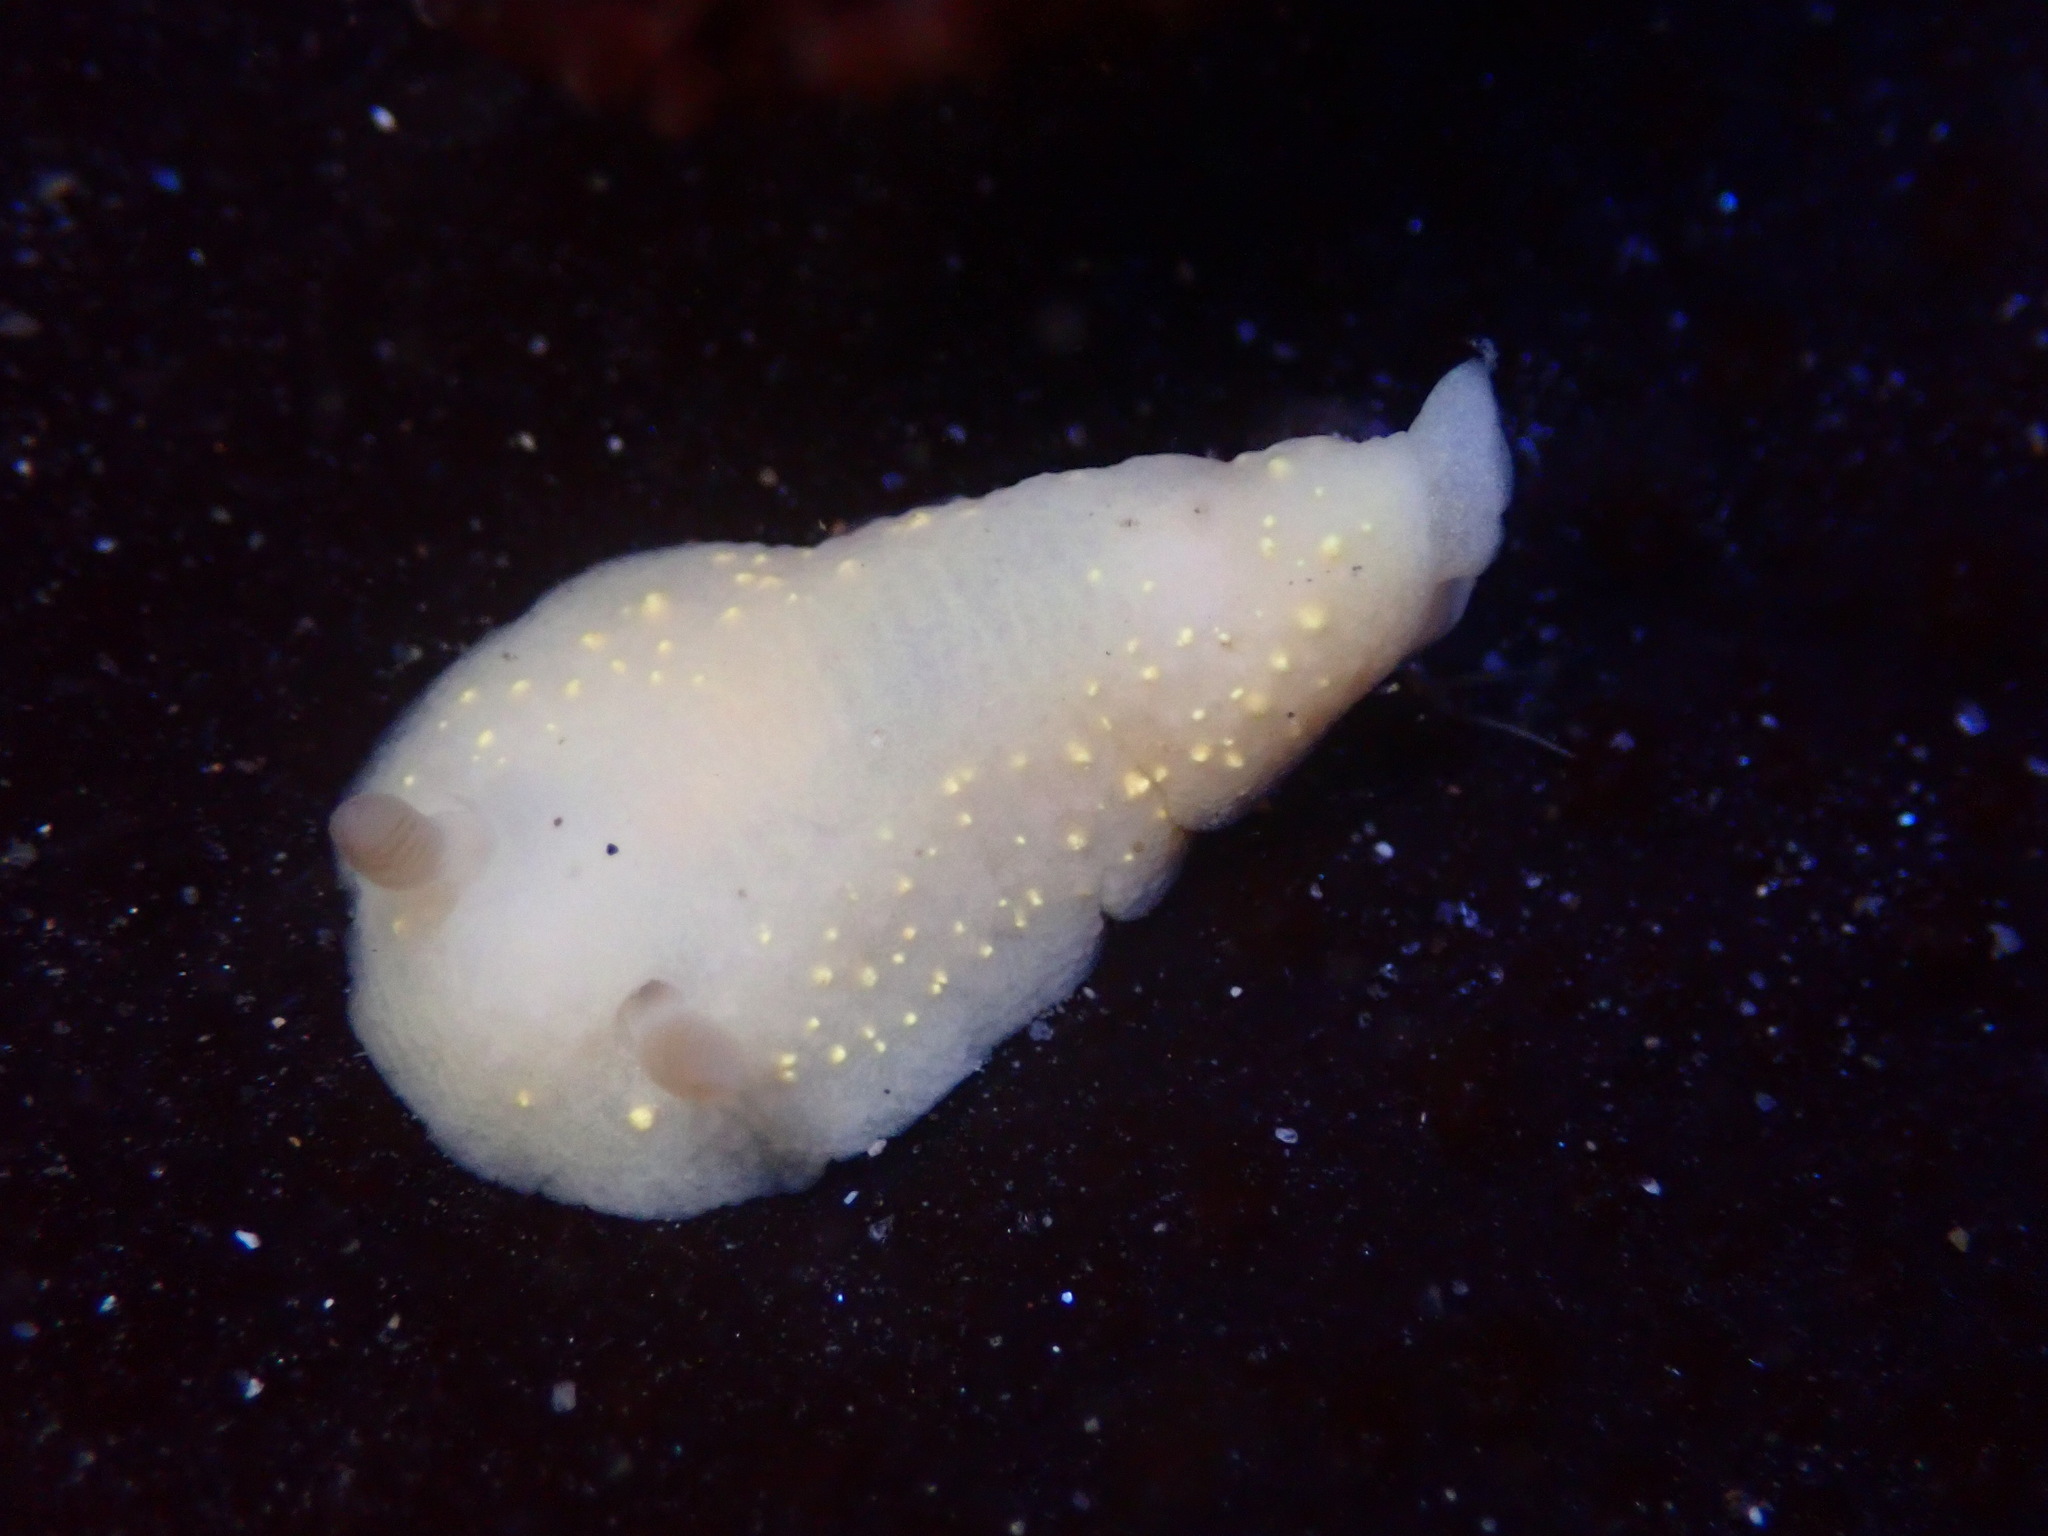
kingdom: Animalia
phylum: Mollusca
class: Gastropoda
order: Nudibranchia
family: Cadlinidae
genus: Cadlina
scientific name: Cadlina modesta
